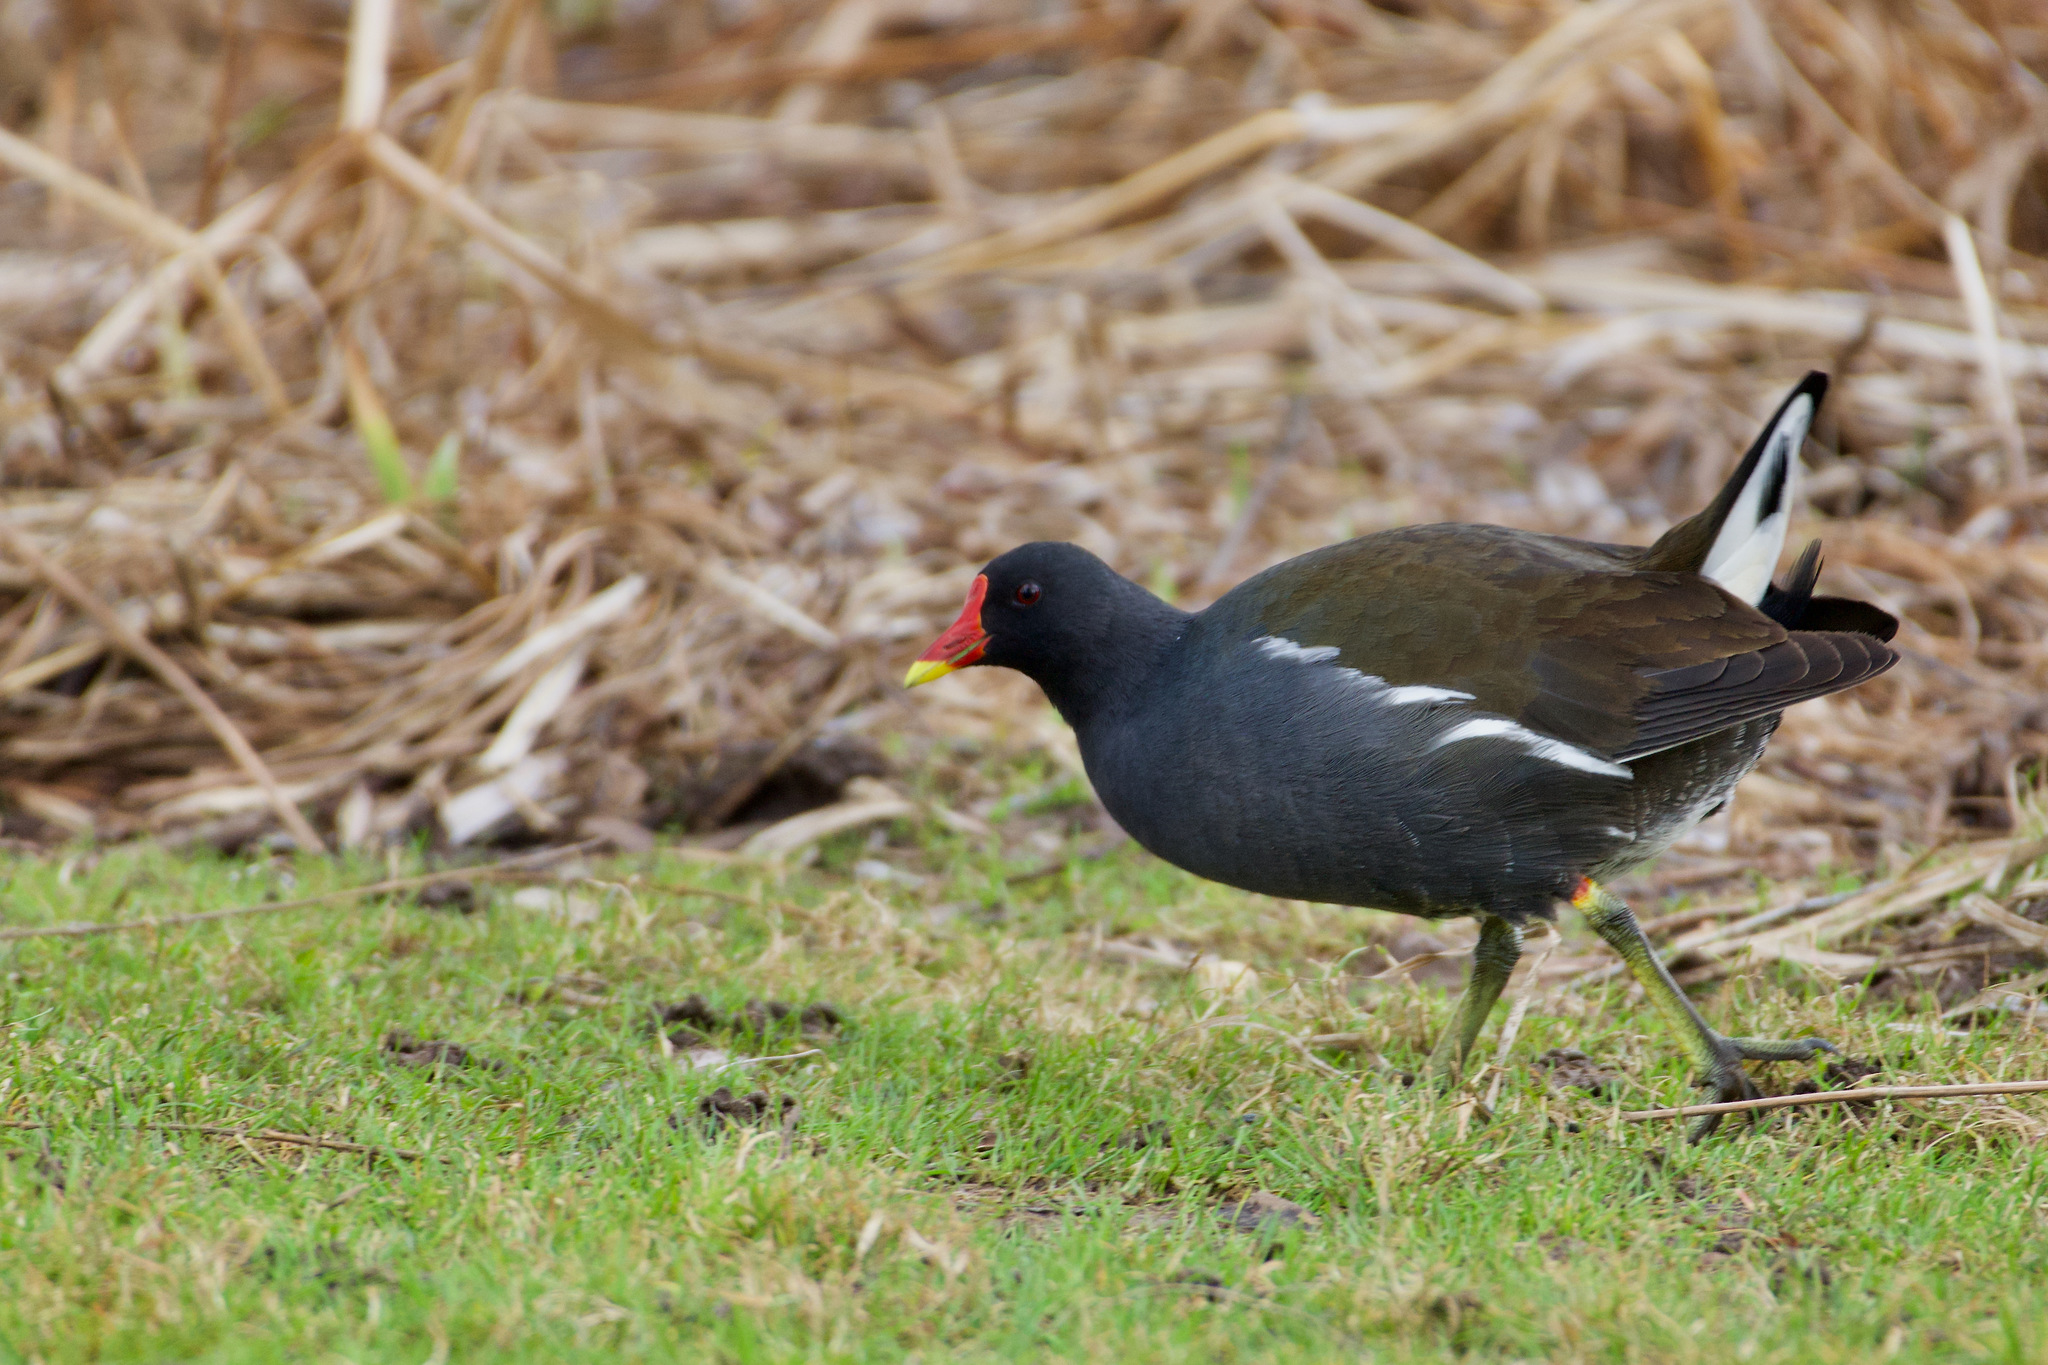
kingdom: Animalia
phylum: Chordata
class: Aves
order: Gruiformes
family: Rallidae
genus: Gallinula
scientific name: Gallinula chloropus
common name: Common moorhen
